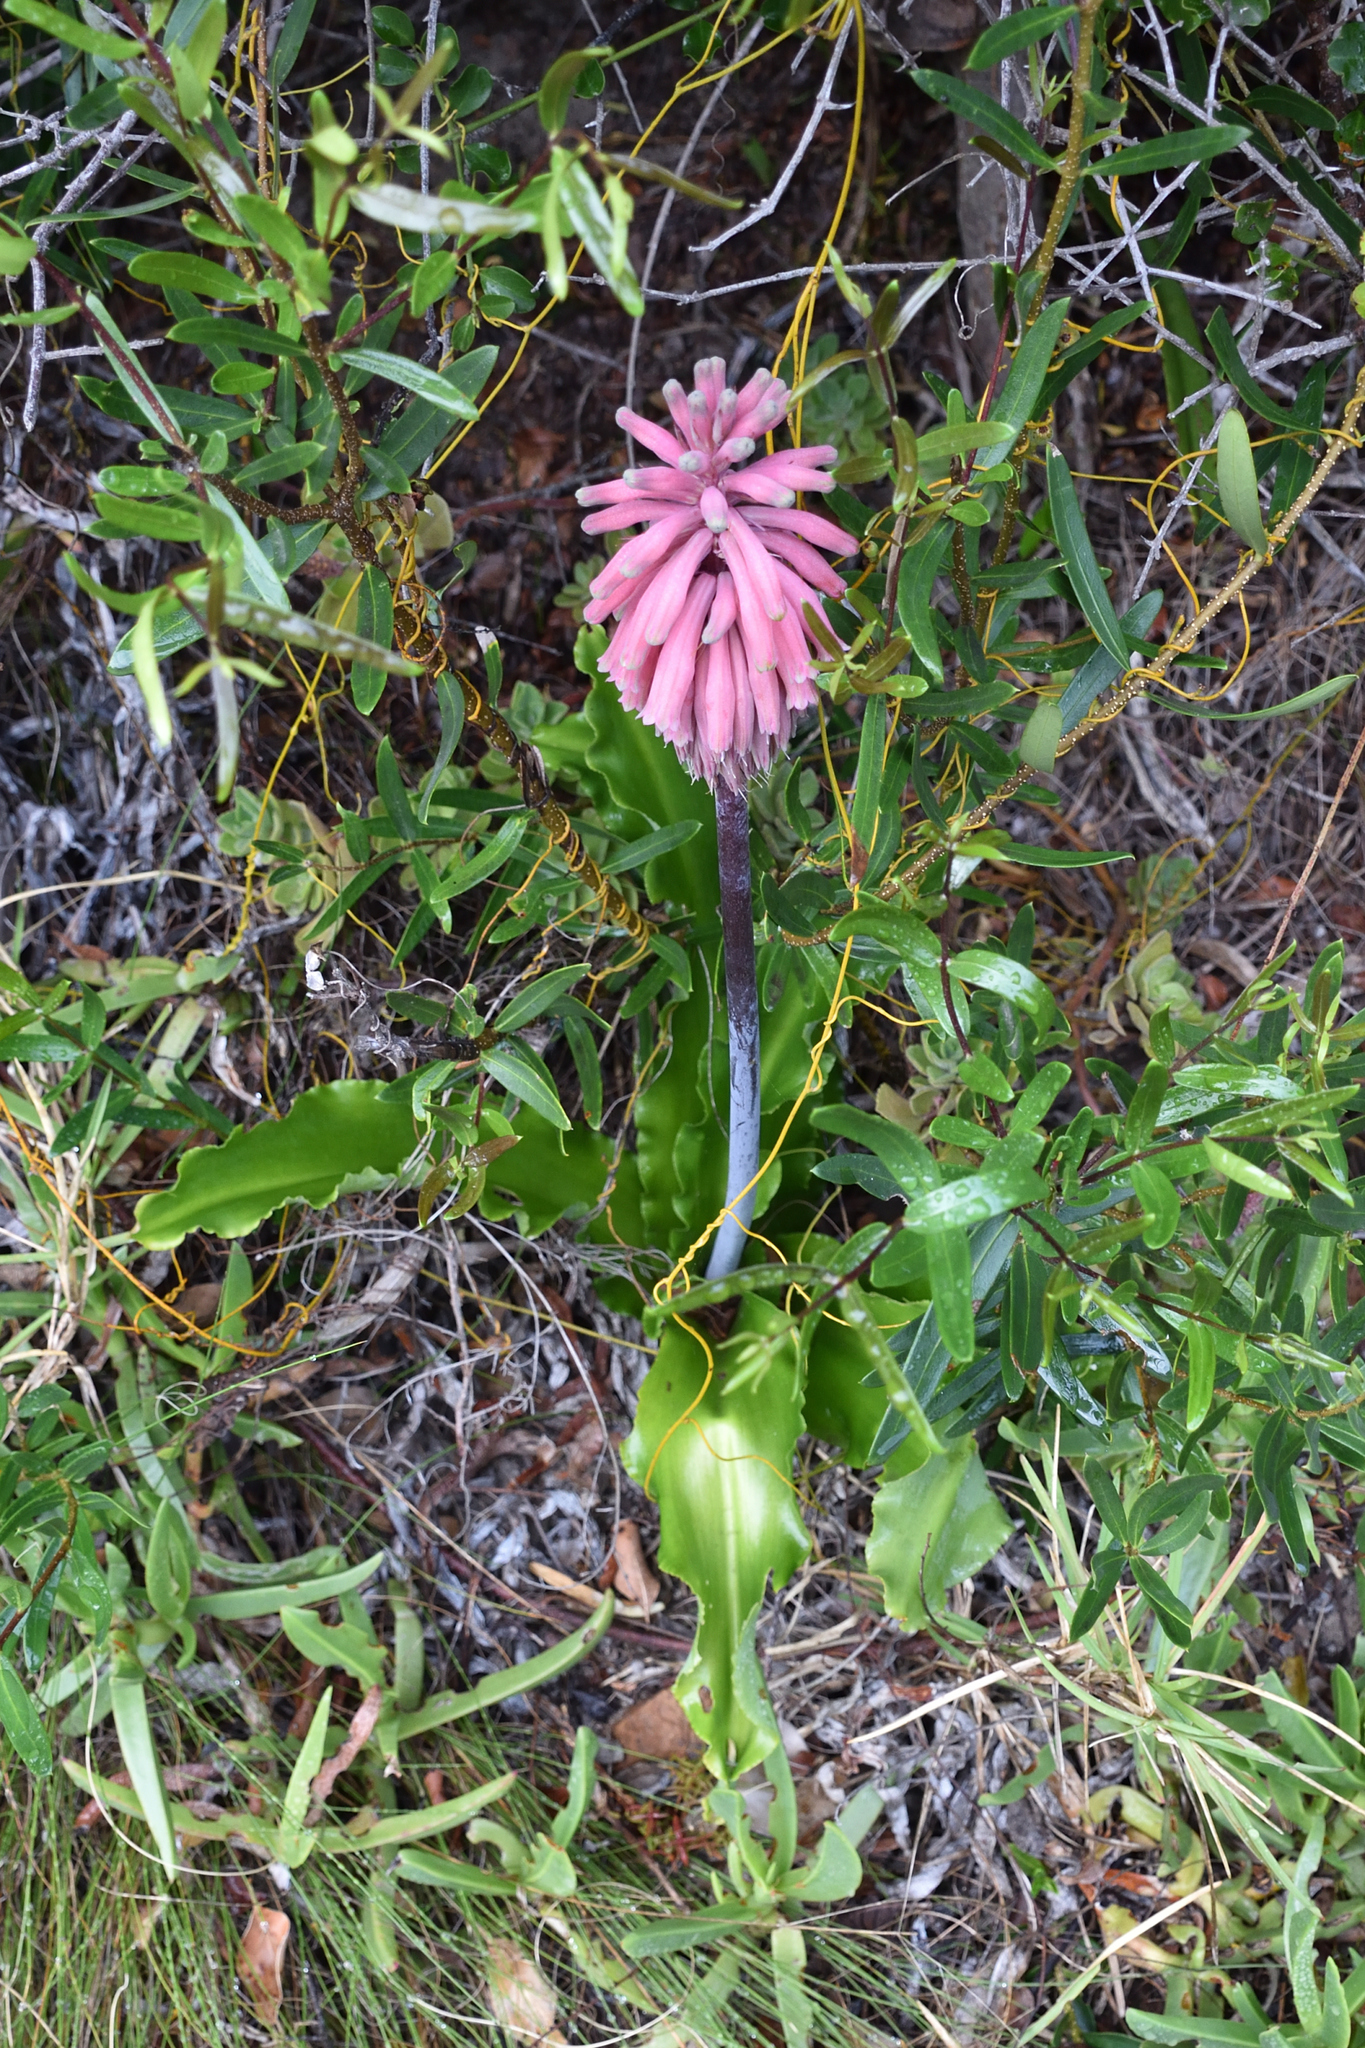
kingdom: Plantae
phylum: Tracheophyta
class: Liliopsida
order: Asparagales
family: Asparagaceae
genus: Veltheimia
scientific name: Veltheimia bracteata
